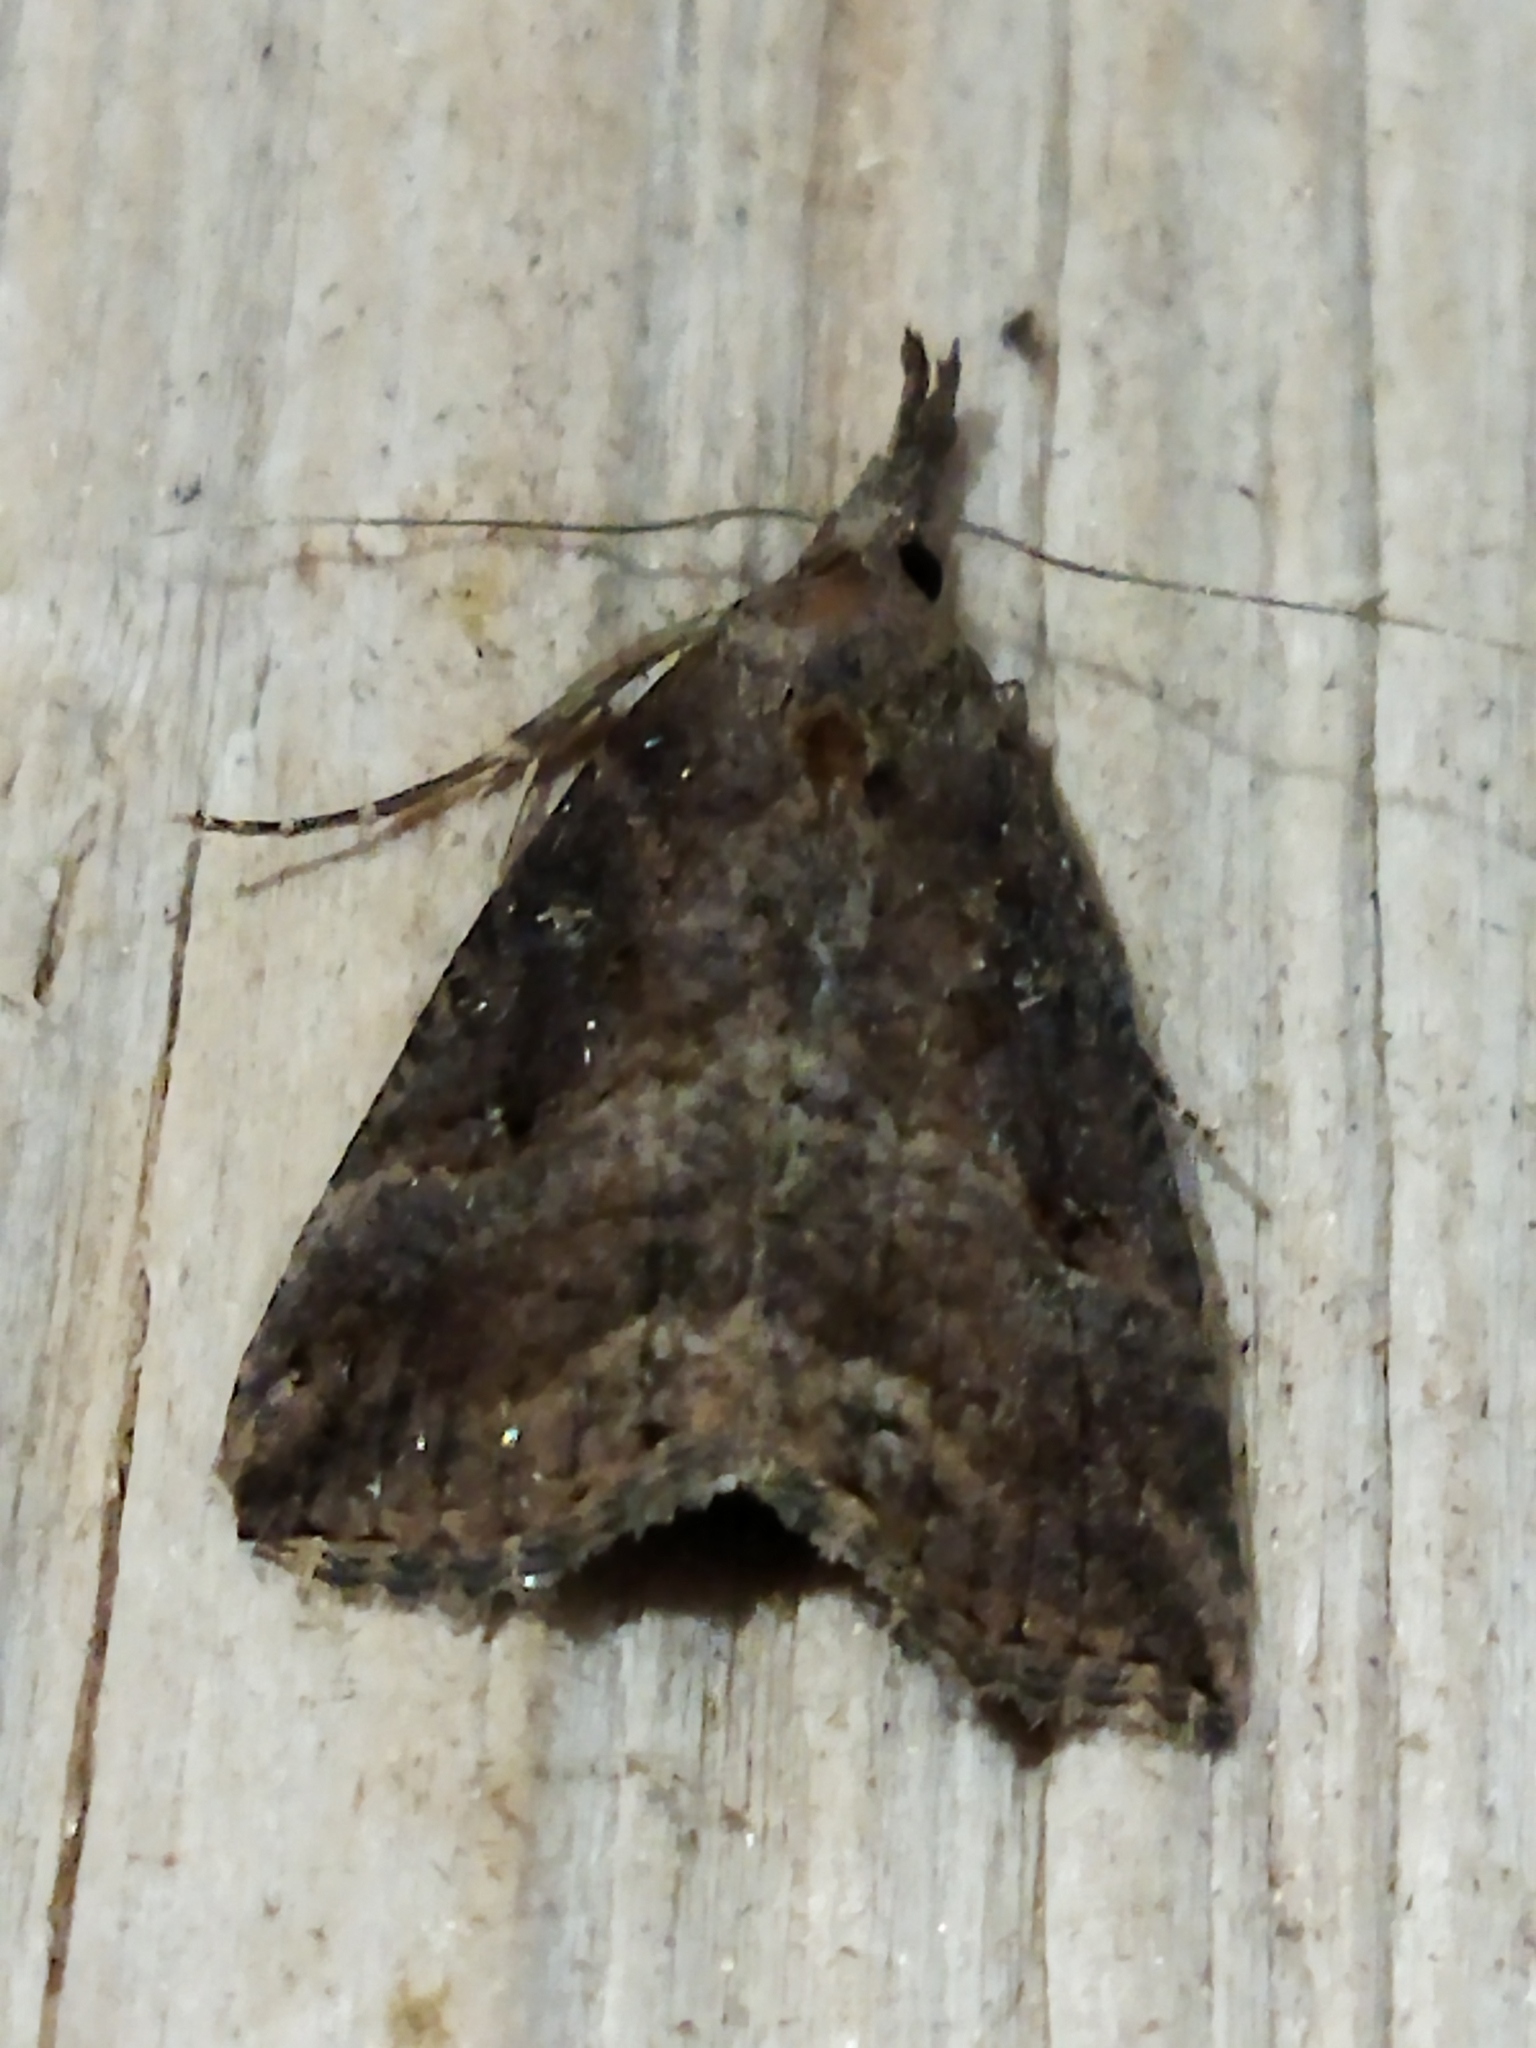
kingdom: Animalia
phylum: Arthropoda
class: Insecta
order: Lepidoptera
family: Erebidae
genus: Hypena
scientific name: Hypena rostralis
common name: Buttoned snout
